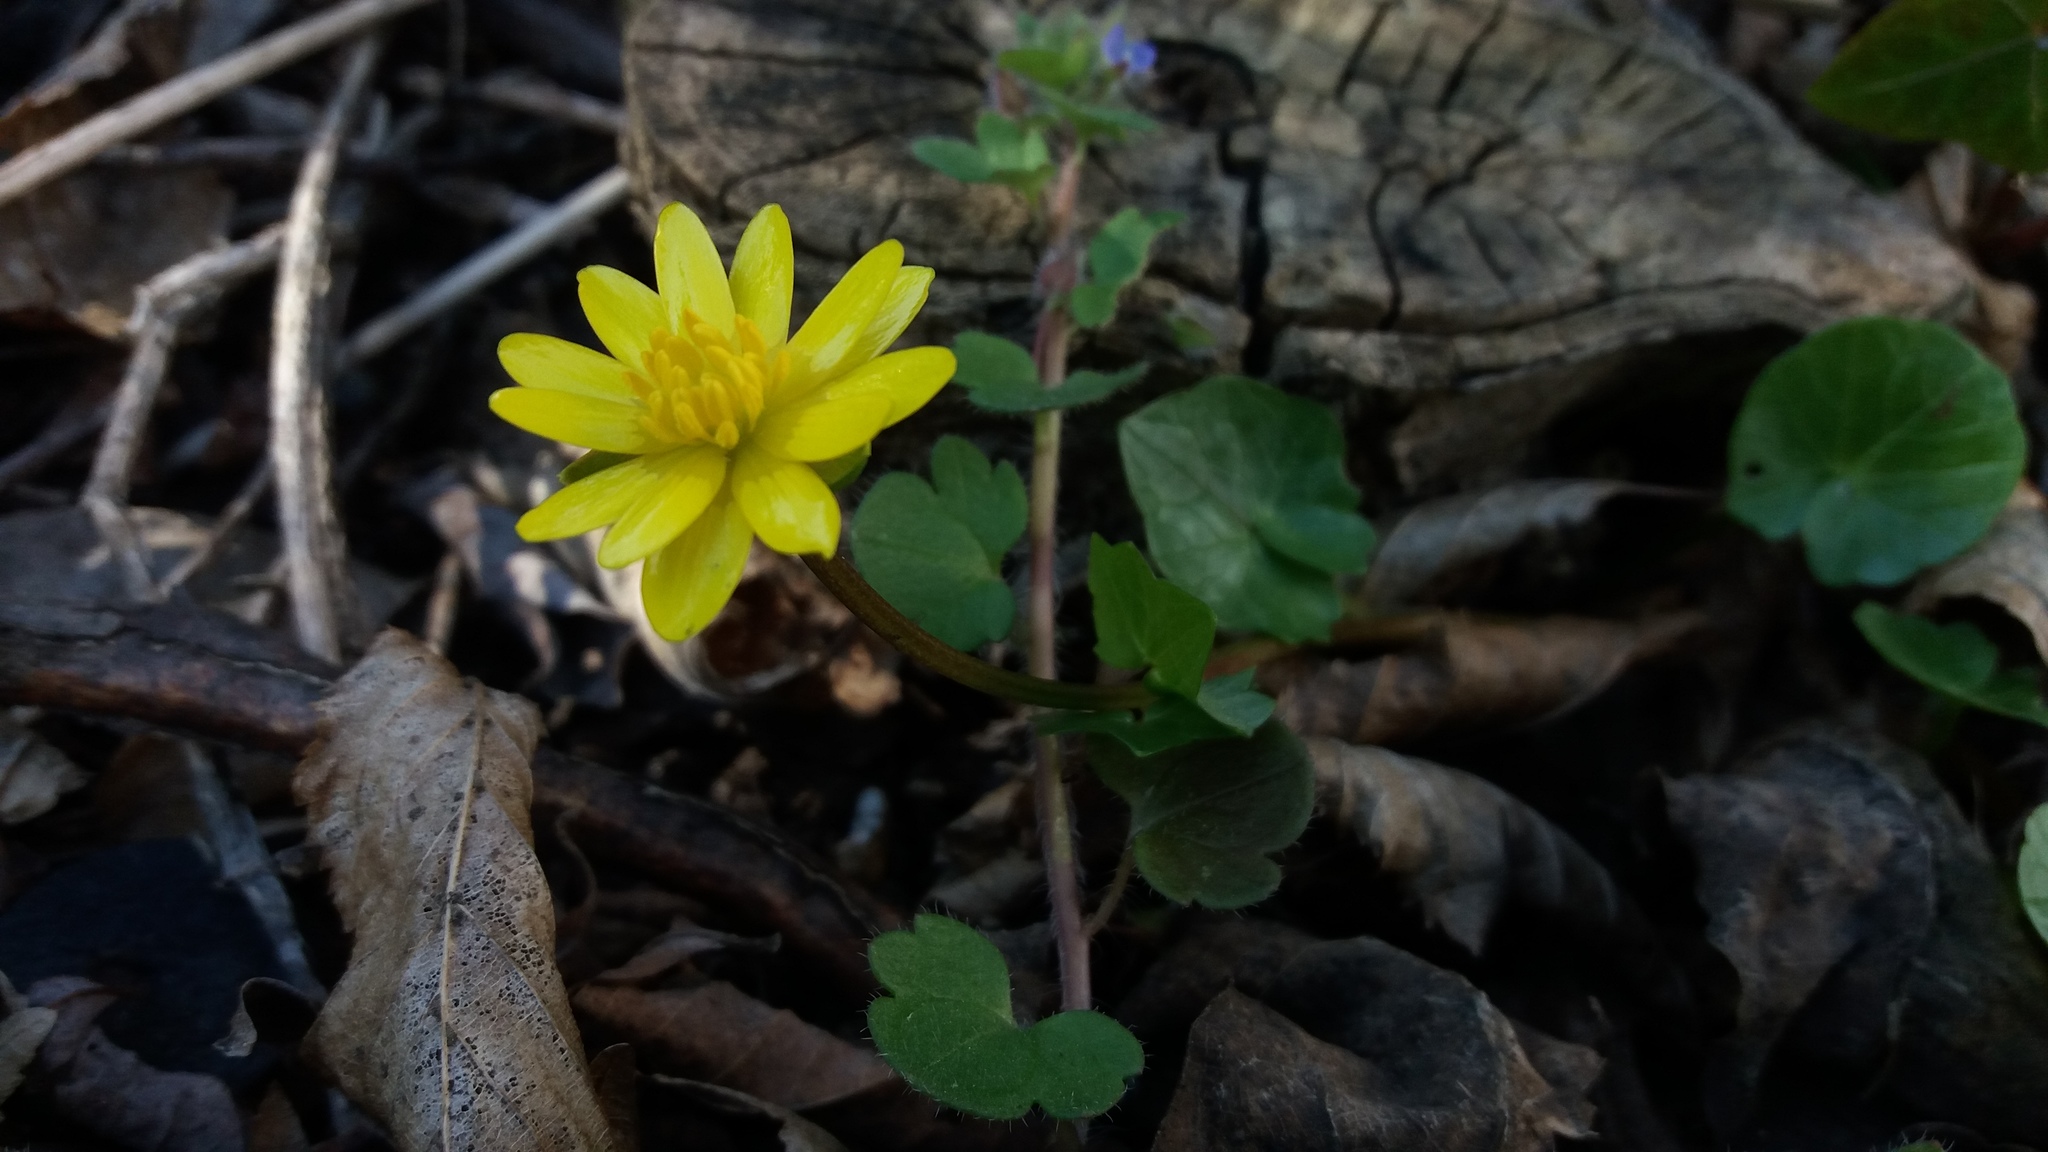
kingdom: Plantae
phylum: Tracheophyta
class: Magnoliopsida
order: Ranunculales
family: Ranunculaceae
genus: Ficaria
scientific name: Ficaria verna
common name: Lesser celandine
